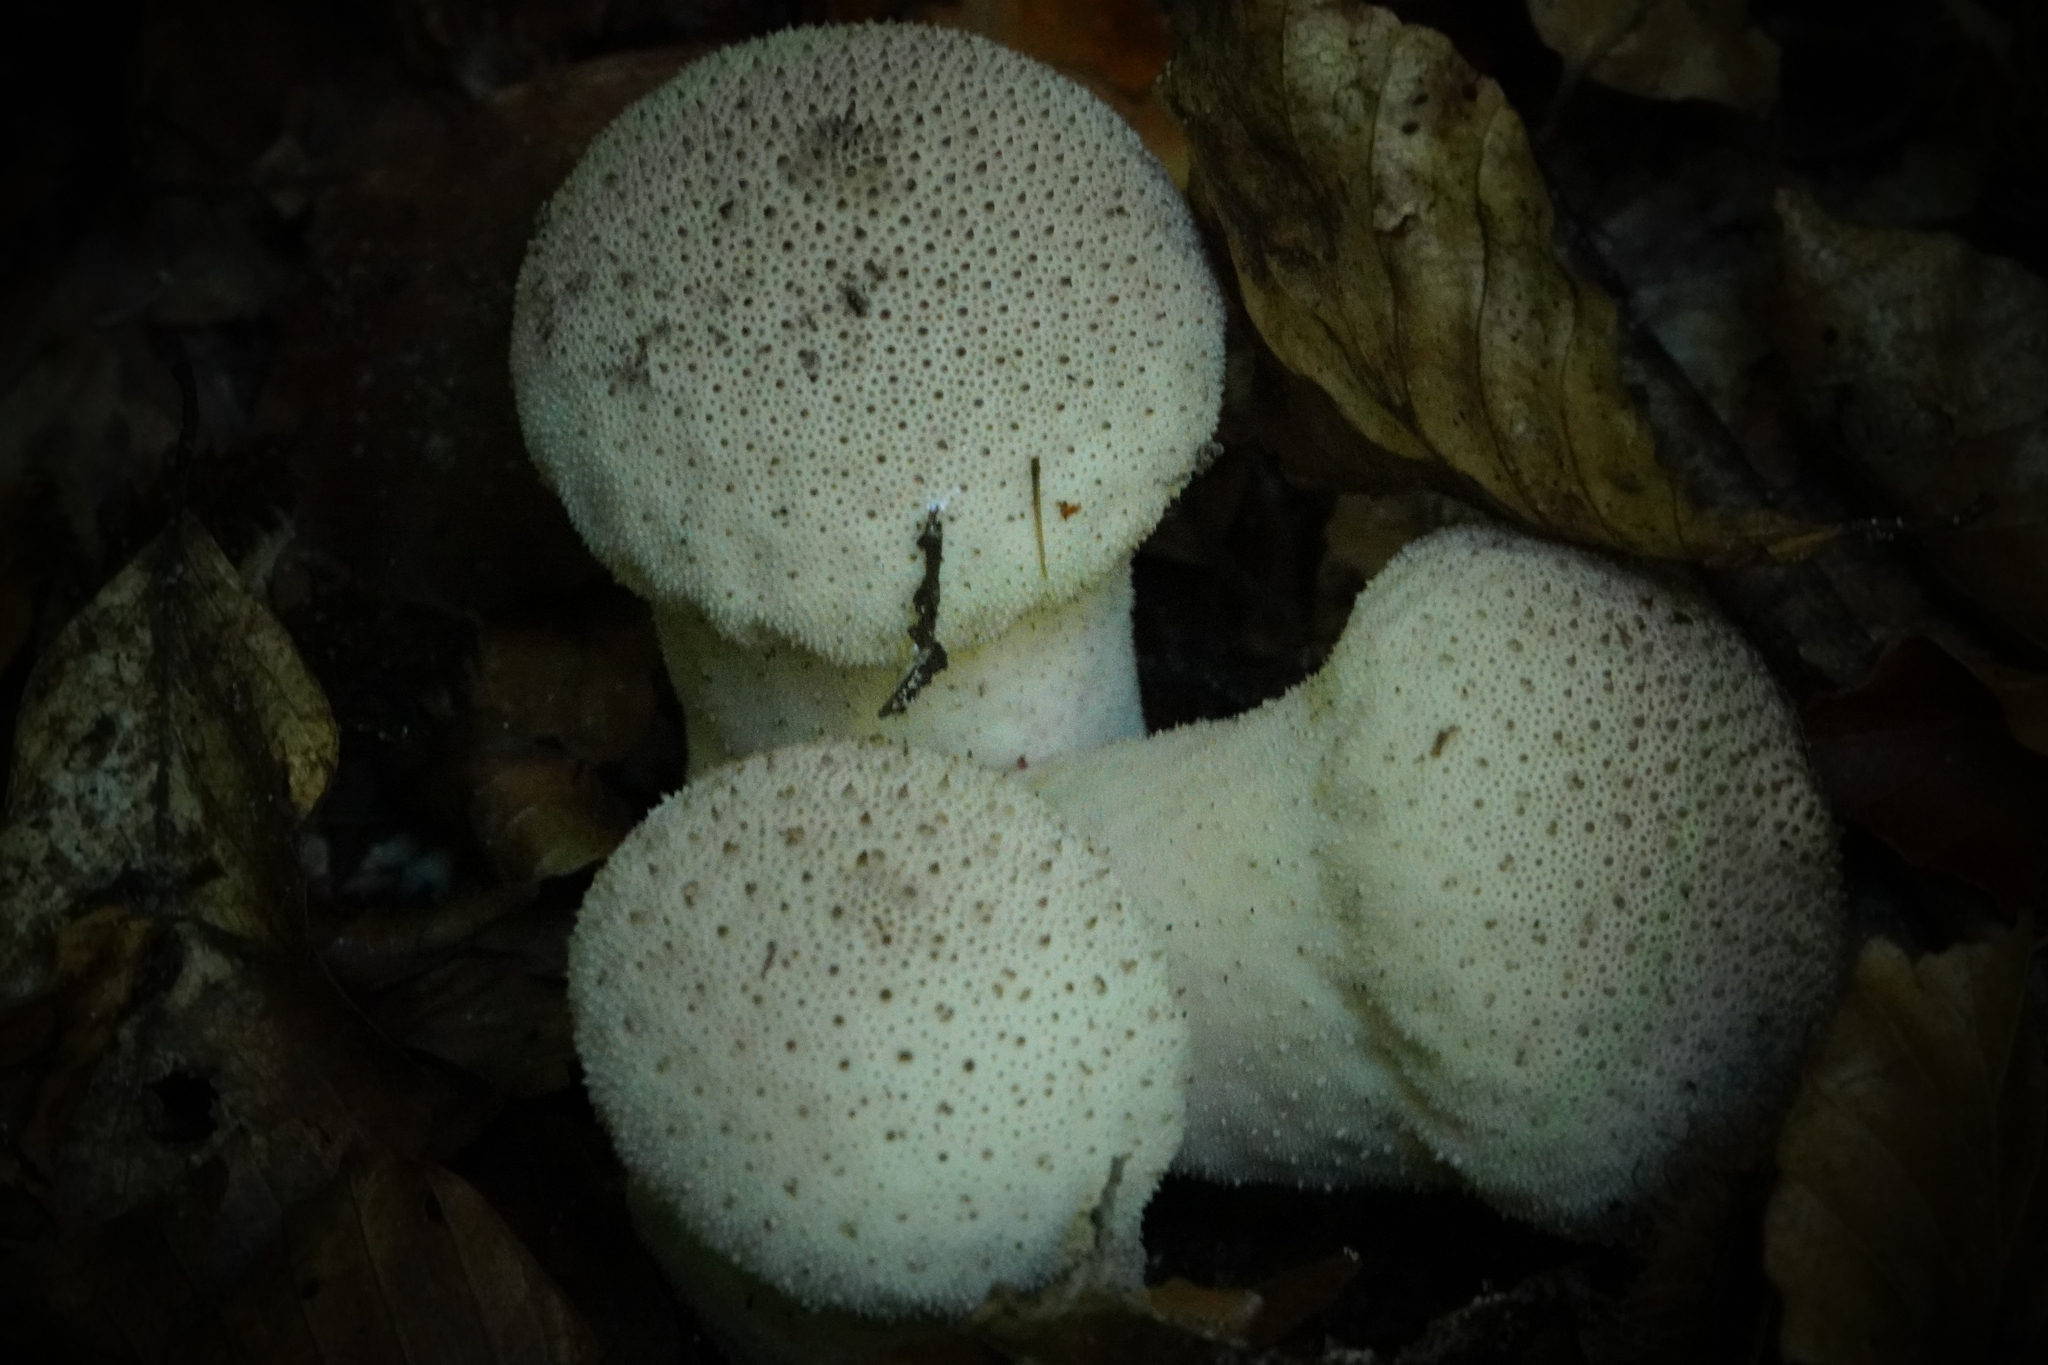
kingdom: Fungi
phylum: Basidiomycota
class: Agaricomycetes
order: Agaricales
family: Lycoperdaceae
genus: Lycoperdon
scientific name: Lycoperdon perlatum
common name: Common puffball
